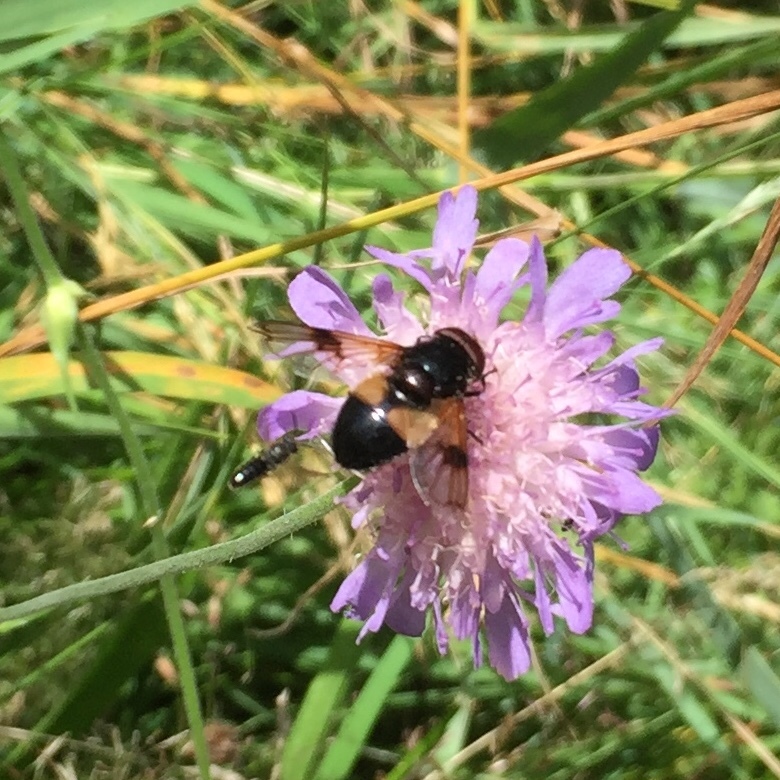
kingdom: Animalia
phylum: Arthropoda
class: Insecta
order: Diptera
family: Syrphidae
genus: Volucella
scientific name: Volucella pellucens
